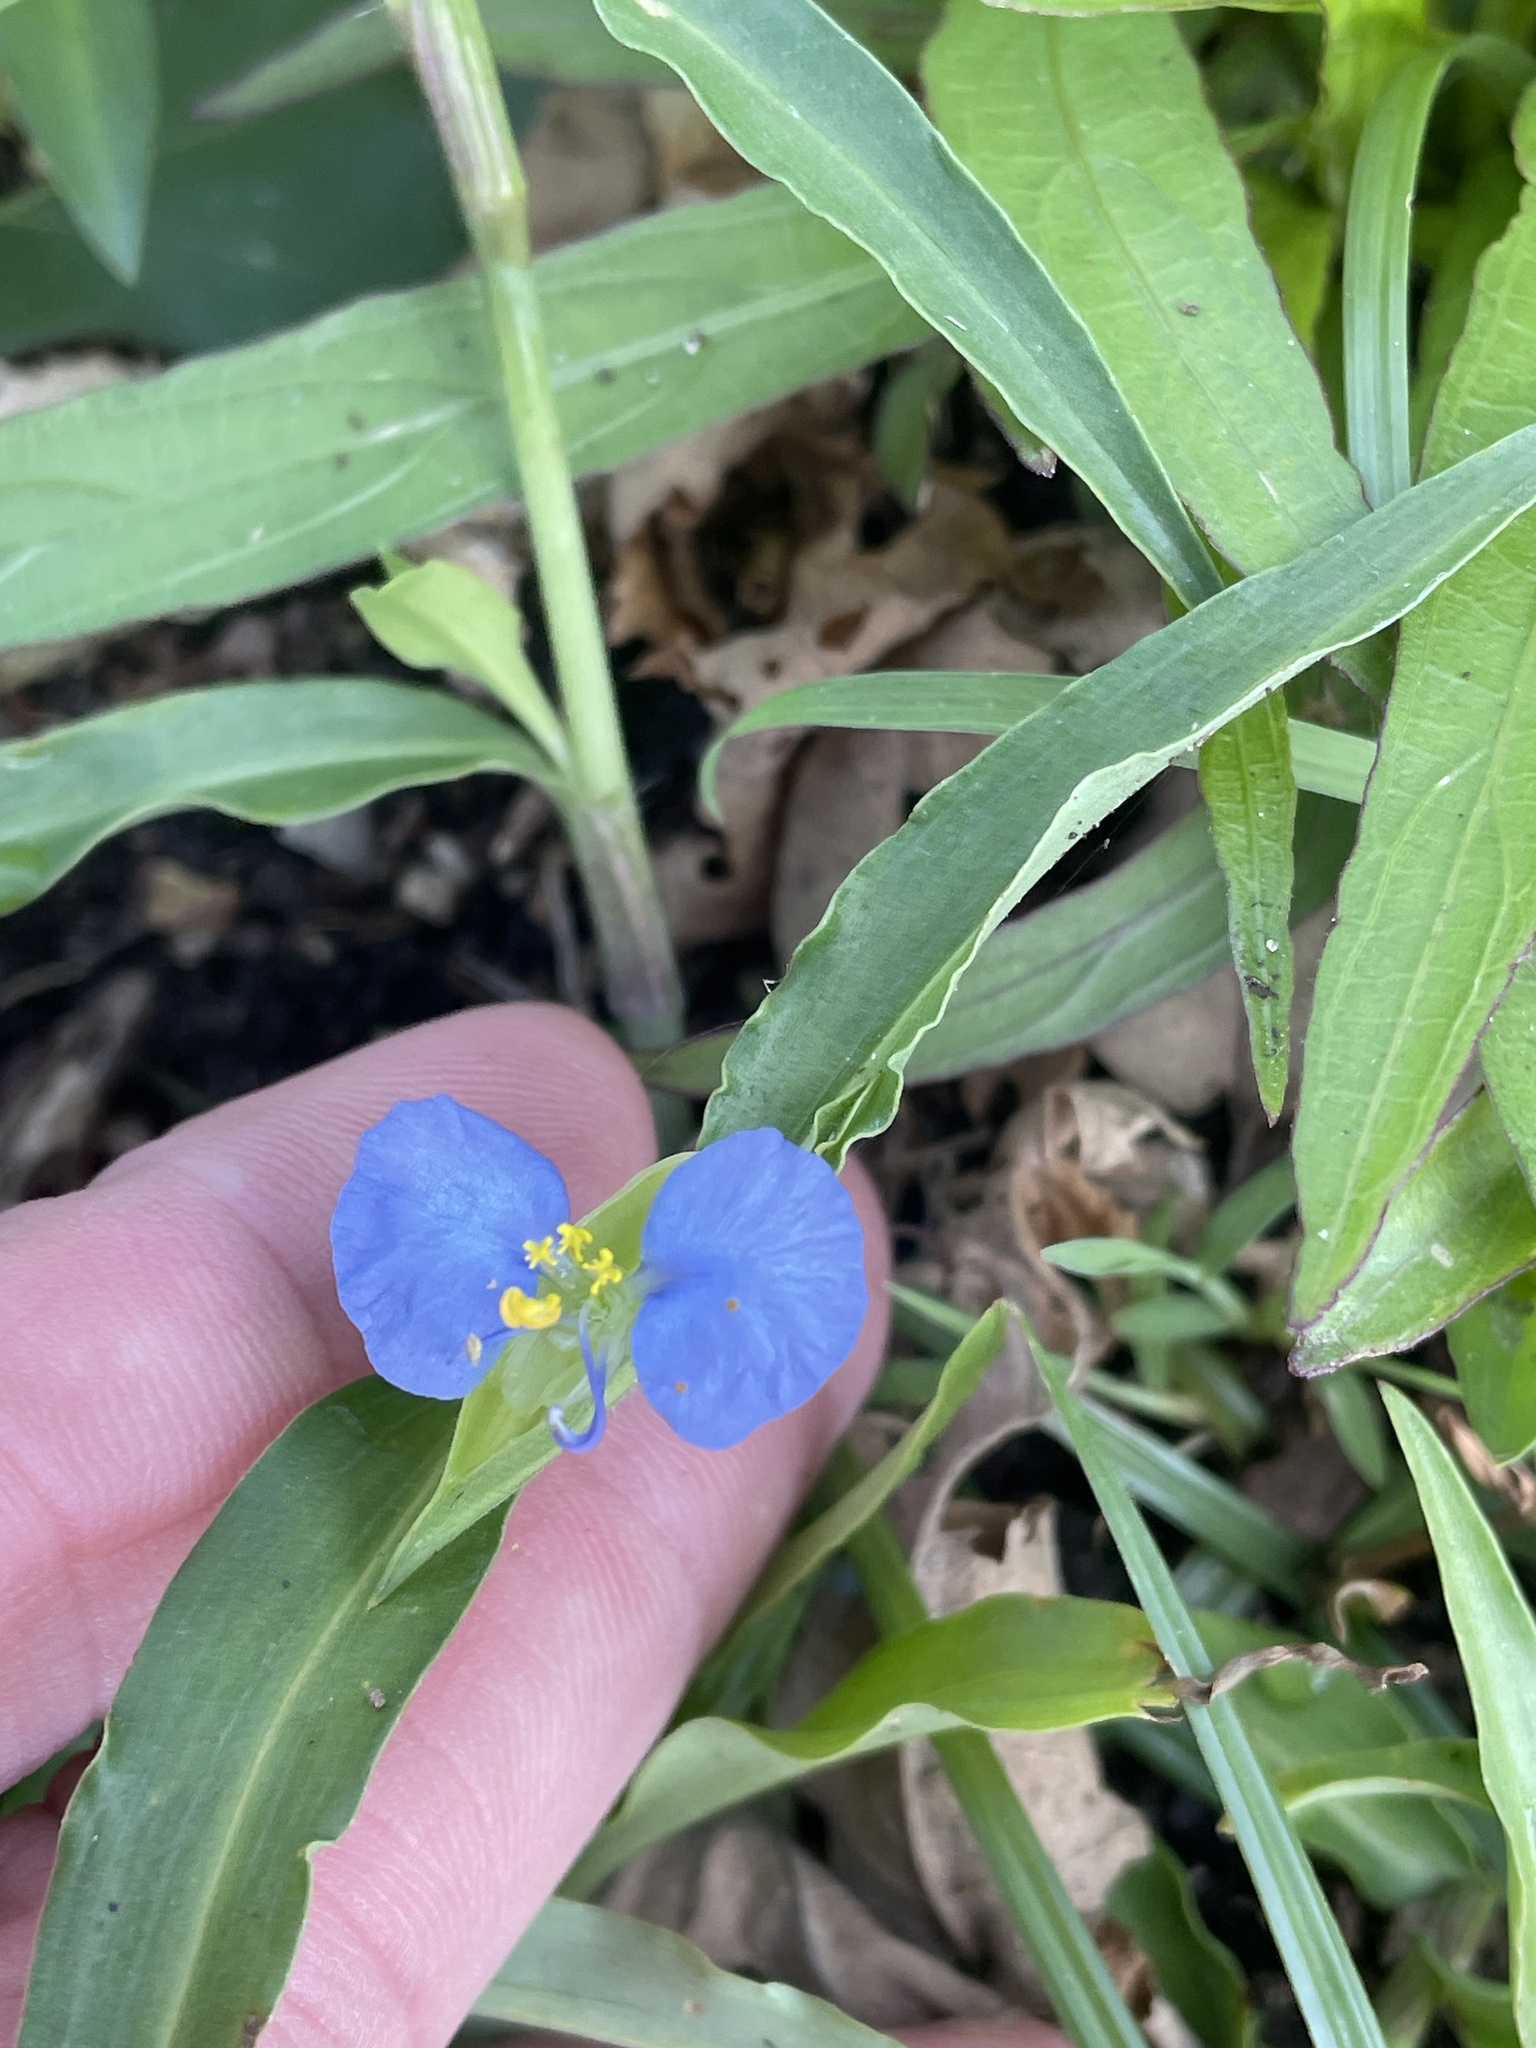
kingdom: Plantae
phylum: Tracheophyta
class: Liliopsida
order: Commelinales
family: Commelinaceae
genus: Commelina
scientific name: Commelina erecta
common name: Blousel blommetjie
